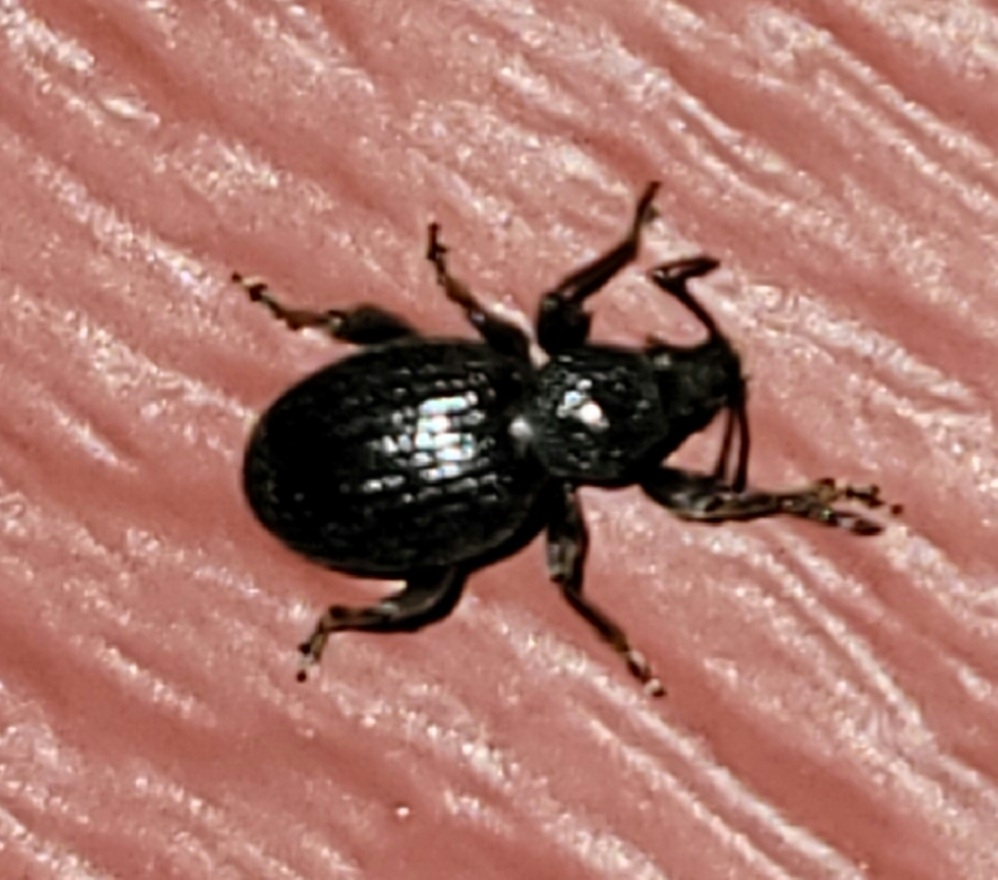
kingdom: Animalia
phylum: Arthropoda
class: Insecta
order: Coleoptera
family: Curculionidae
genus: Otiorhynchus
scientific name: Otiorhynchus ovatus
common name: Strawberry root weevil
